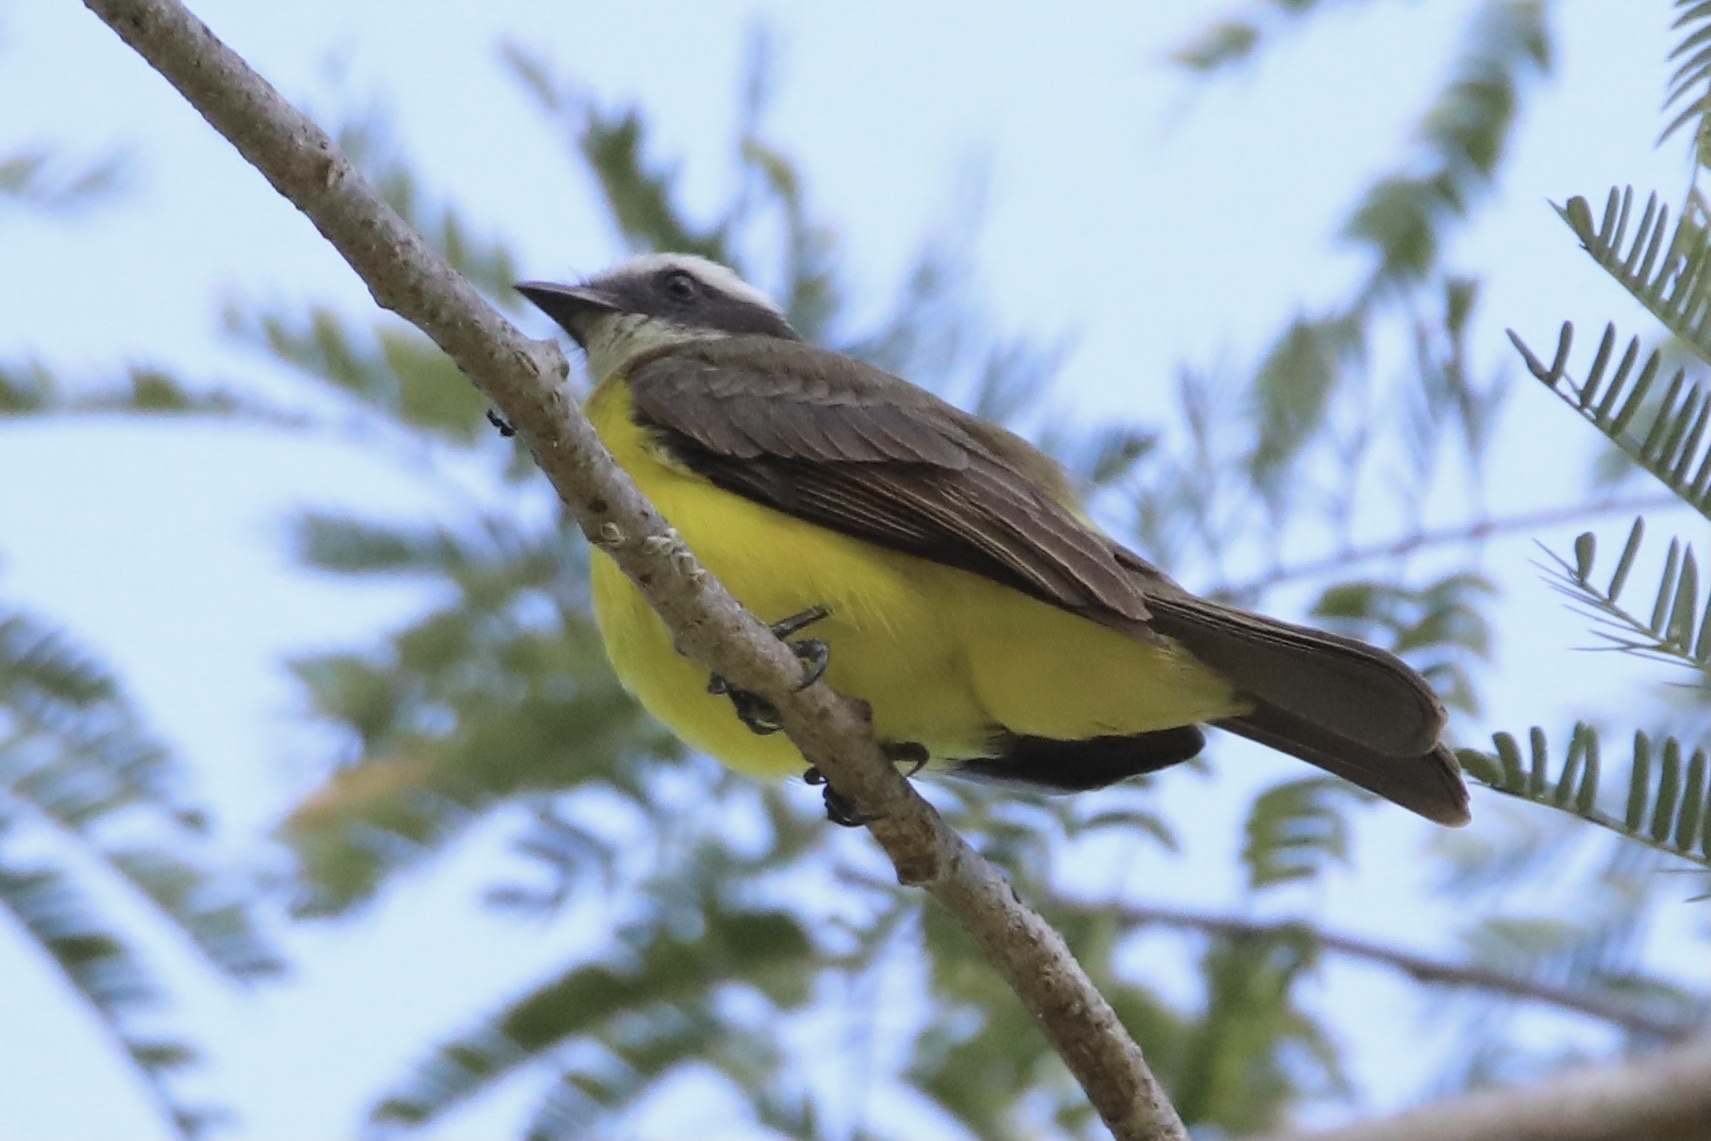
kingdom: Animalia
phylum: Chordata
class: Aves
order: Passeriformes
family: Tyrannidae
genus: Myiozetetes
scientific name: Myiozetetes similis
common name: Social flycatcher
